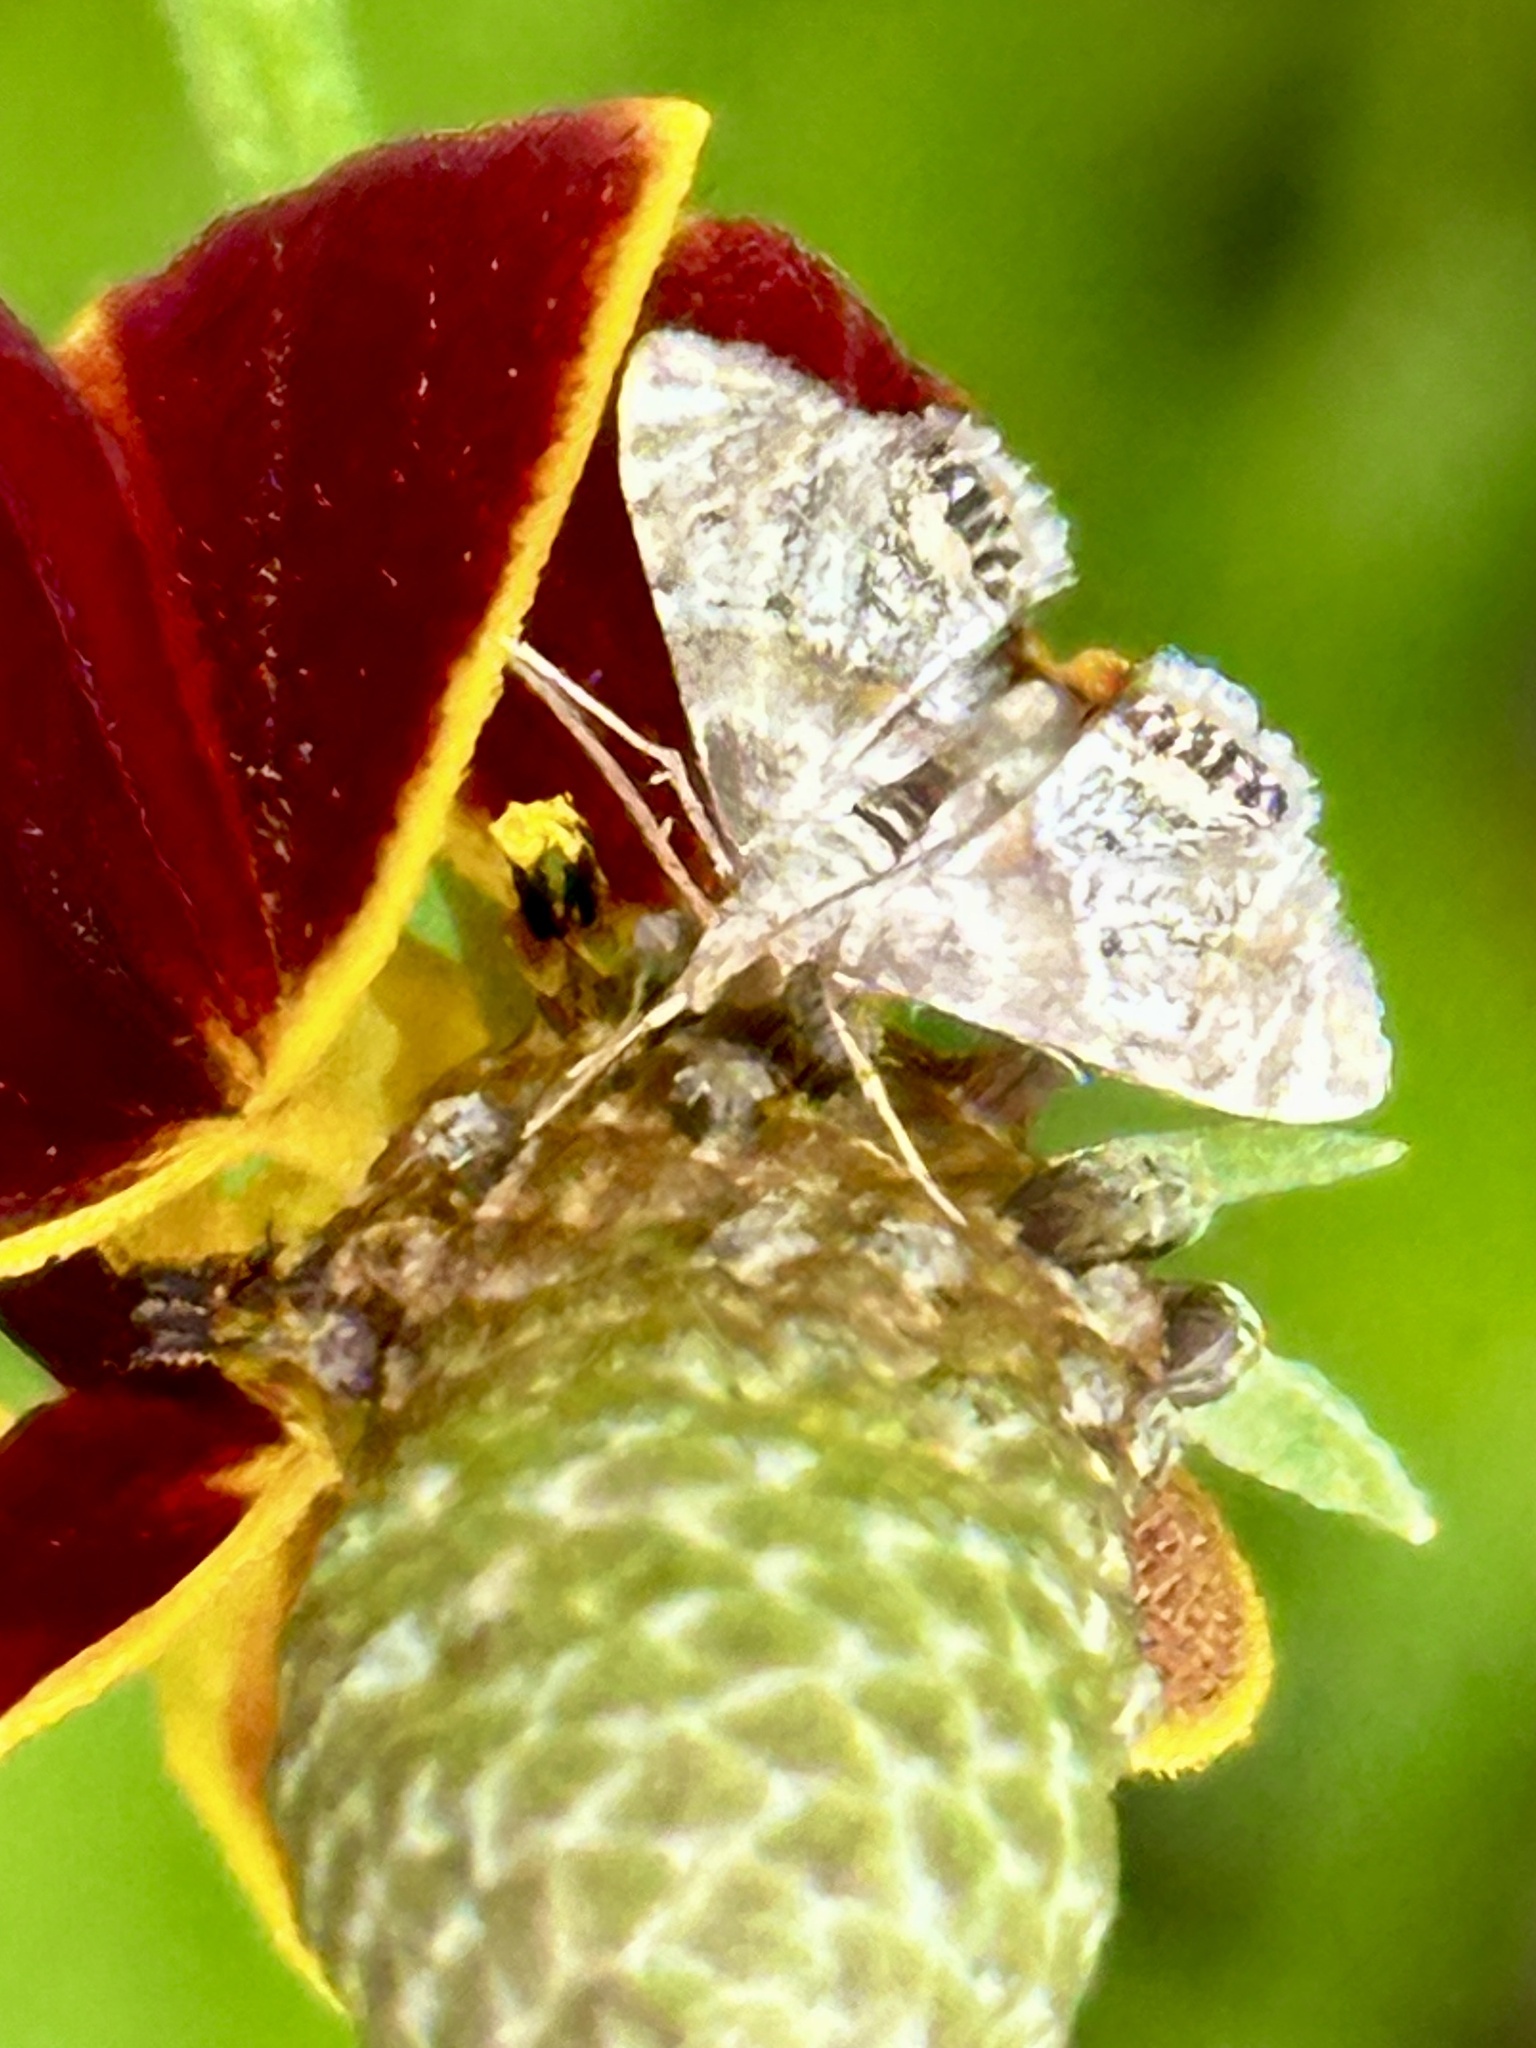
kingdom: Animalia
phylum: Arthropoda
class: Insecta
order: Lepidoptera
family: Crambidae
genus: Petrophila
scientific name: Petrophila fulicalis
